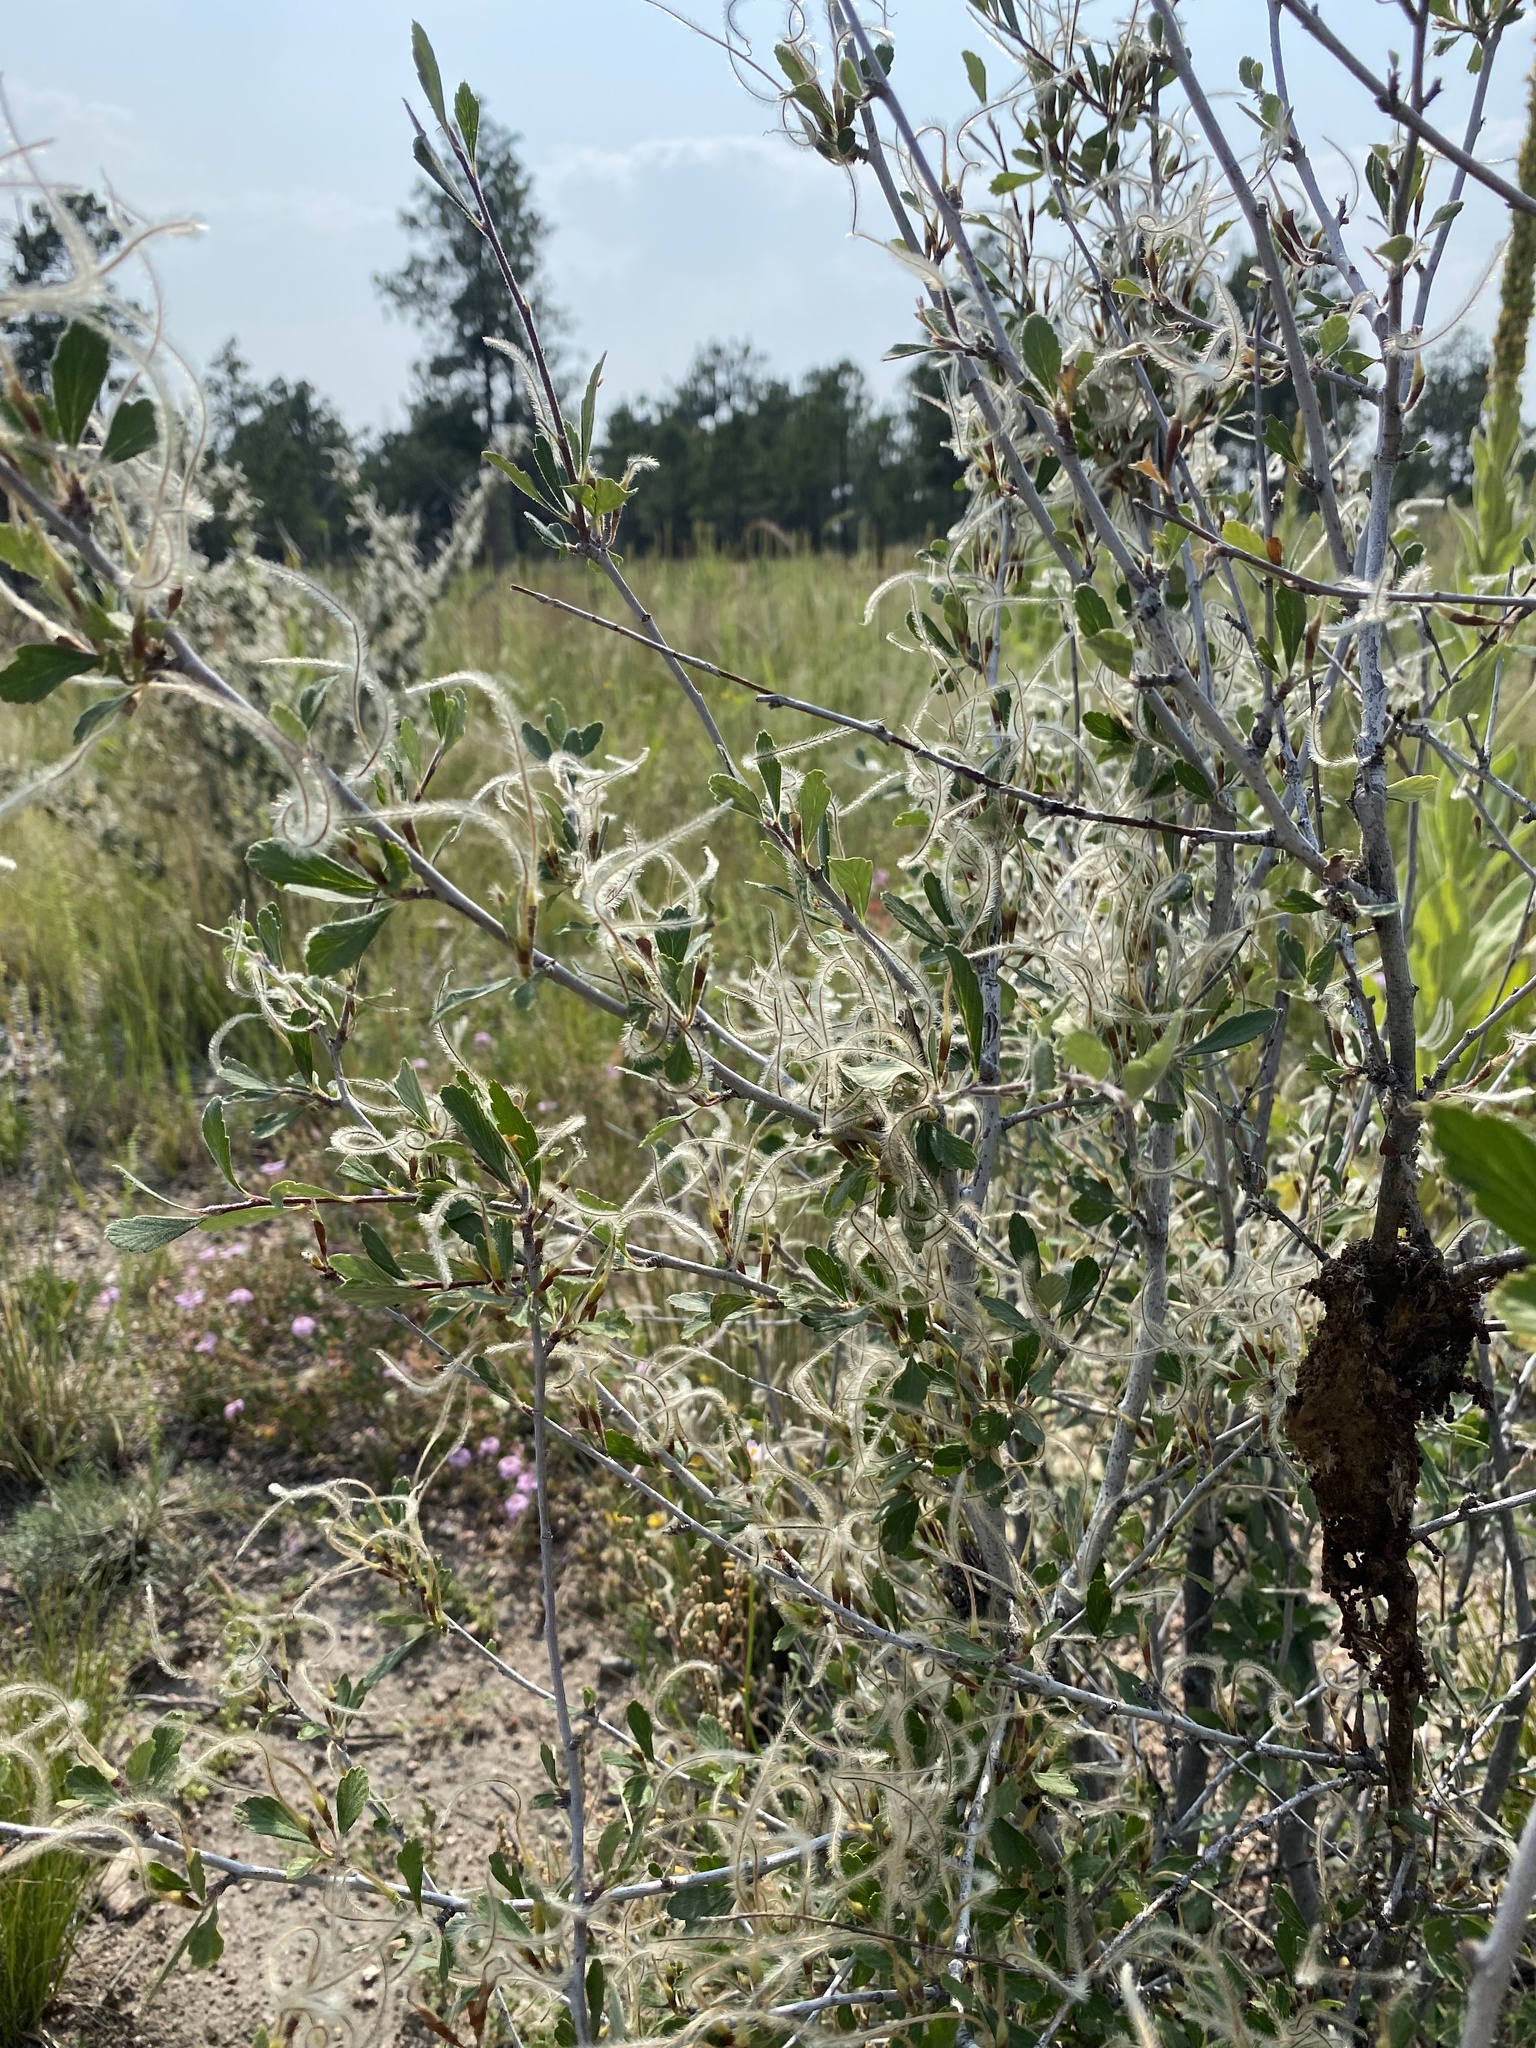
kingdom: Plantae
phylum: Tracheophyta
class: Magnoliopsida
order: Rosales
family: Rosaceae
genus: Cercocarpus
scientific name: Cercocarpus montanus
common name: Alder-leaf cercocarpus
